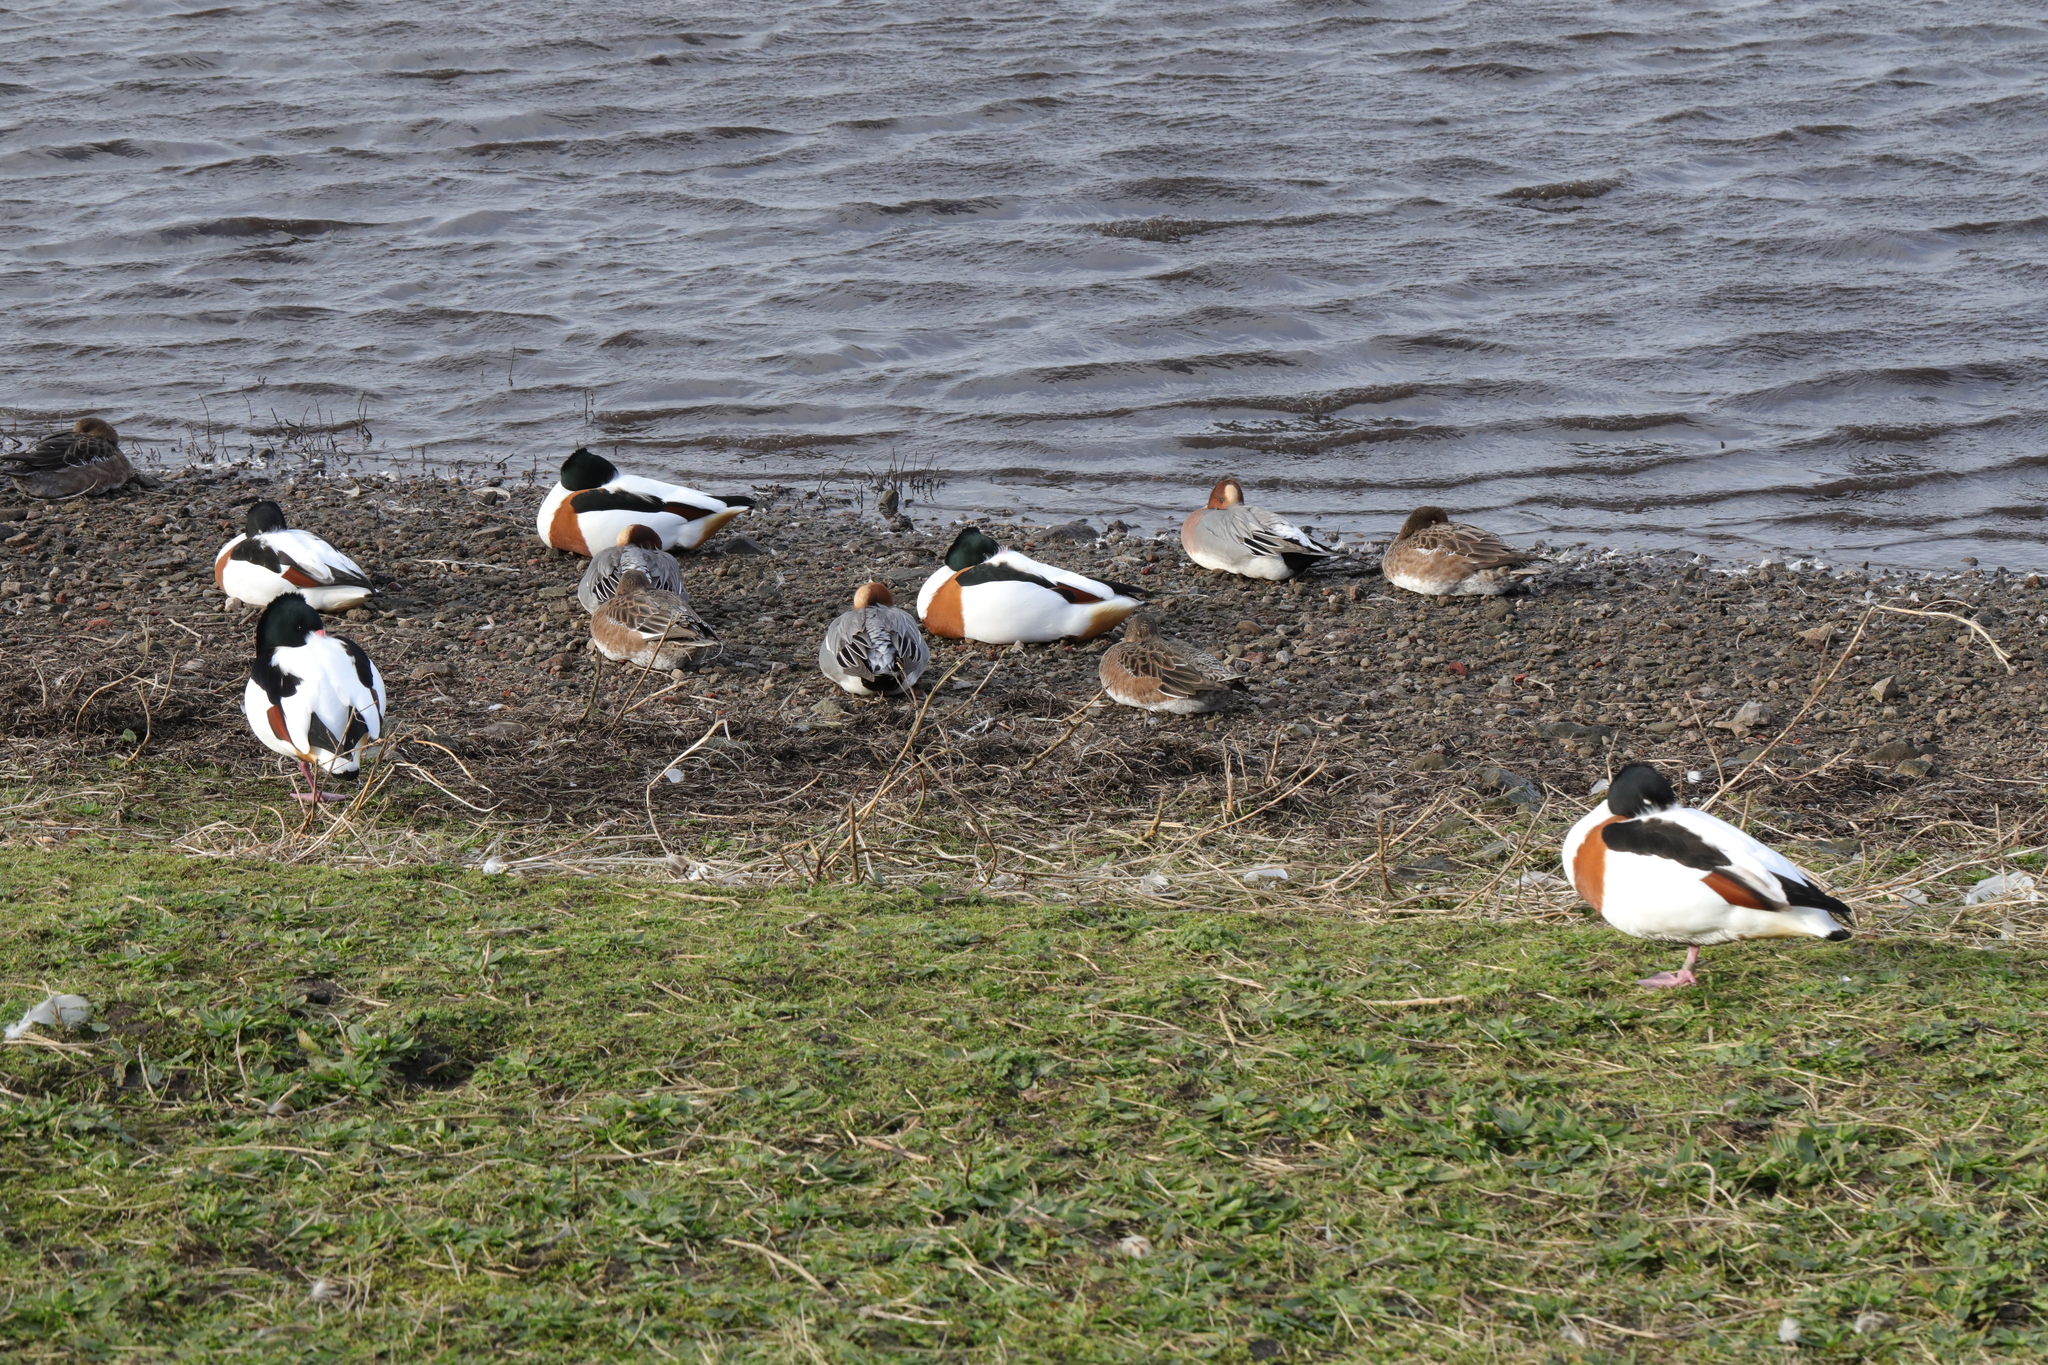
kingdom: Animalia
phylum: Chordata
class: Aves
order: Anseriformes
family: Anatidae
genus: Mareca
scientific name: Mareca penelope
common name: Eurasian wigeon
